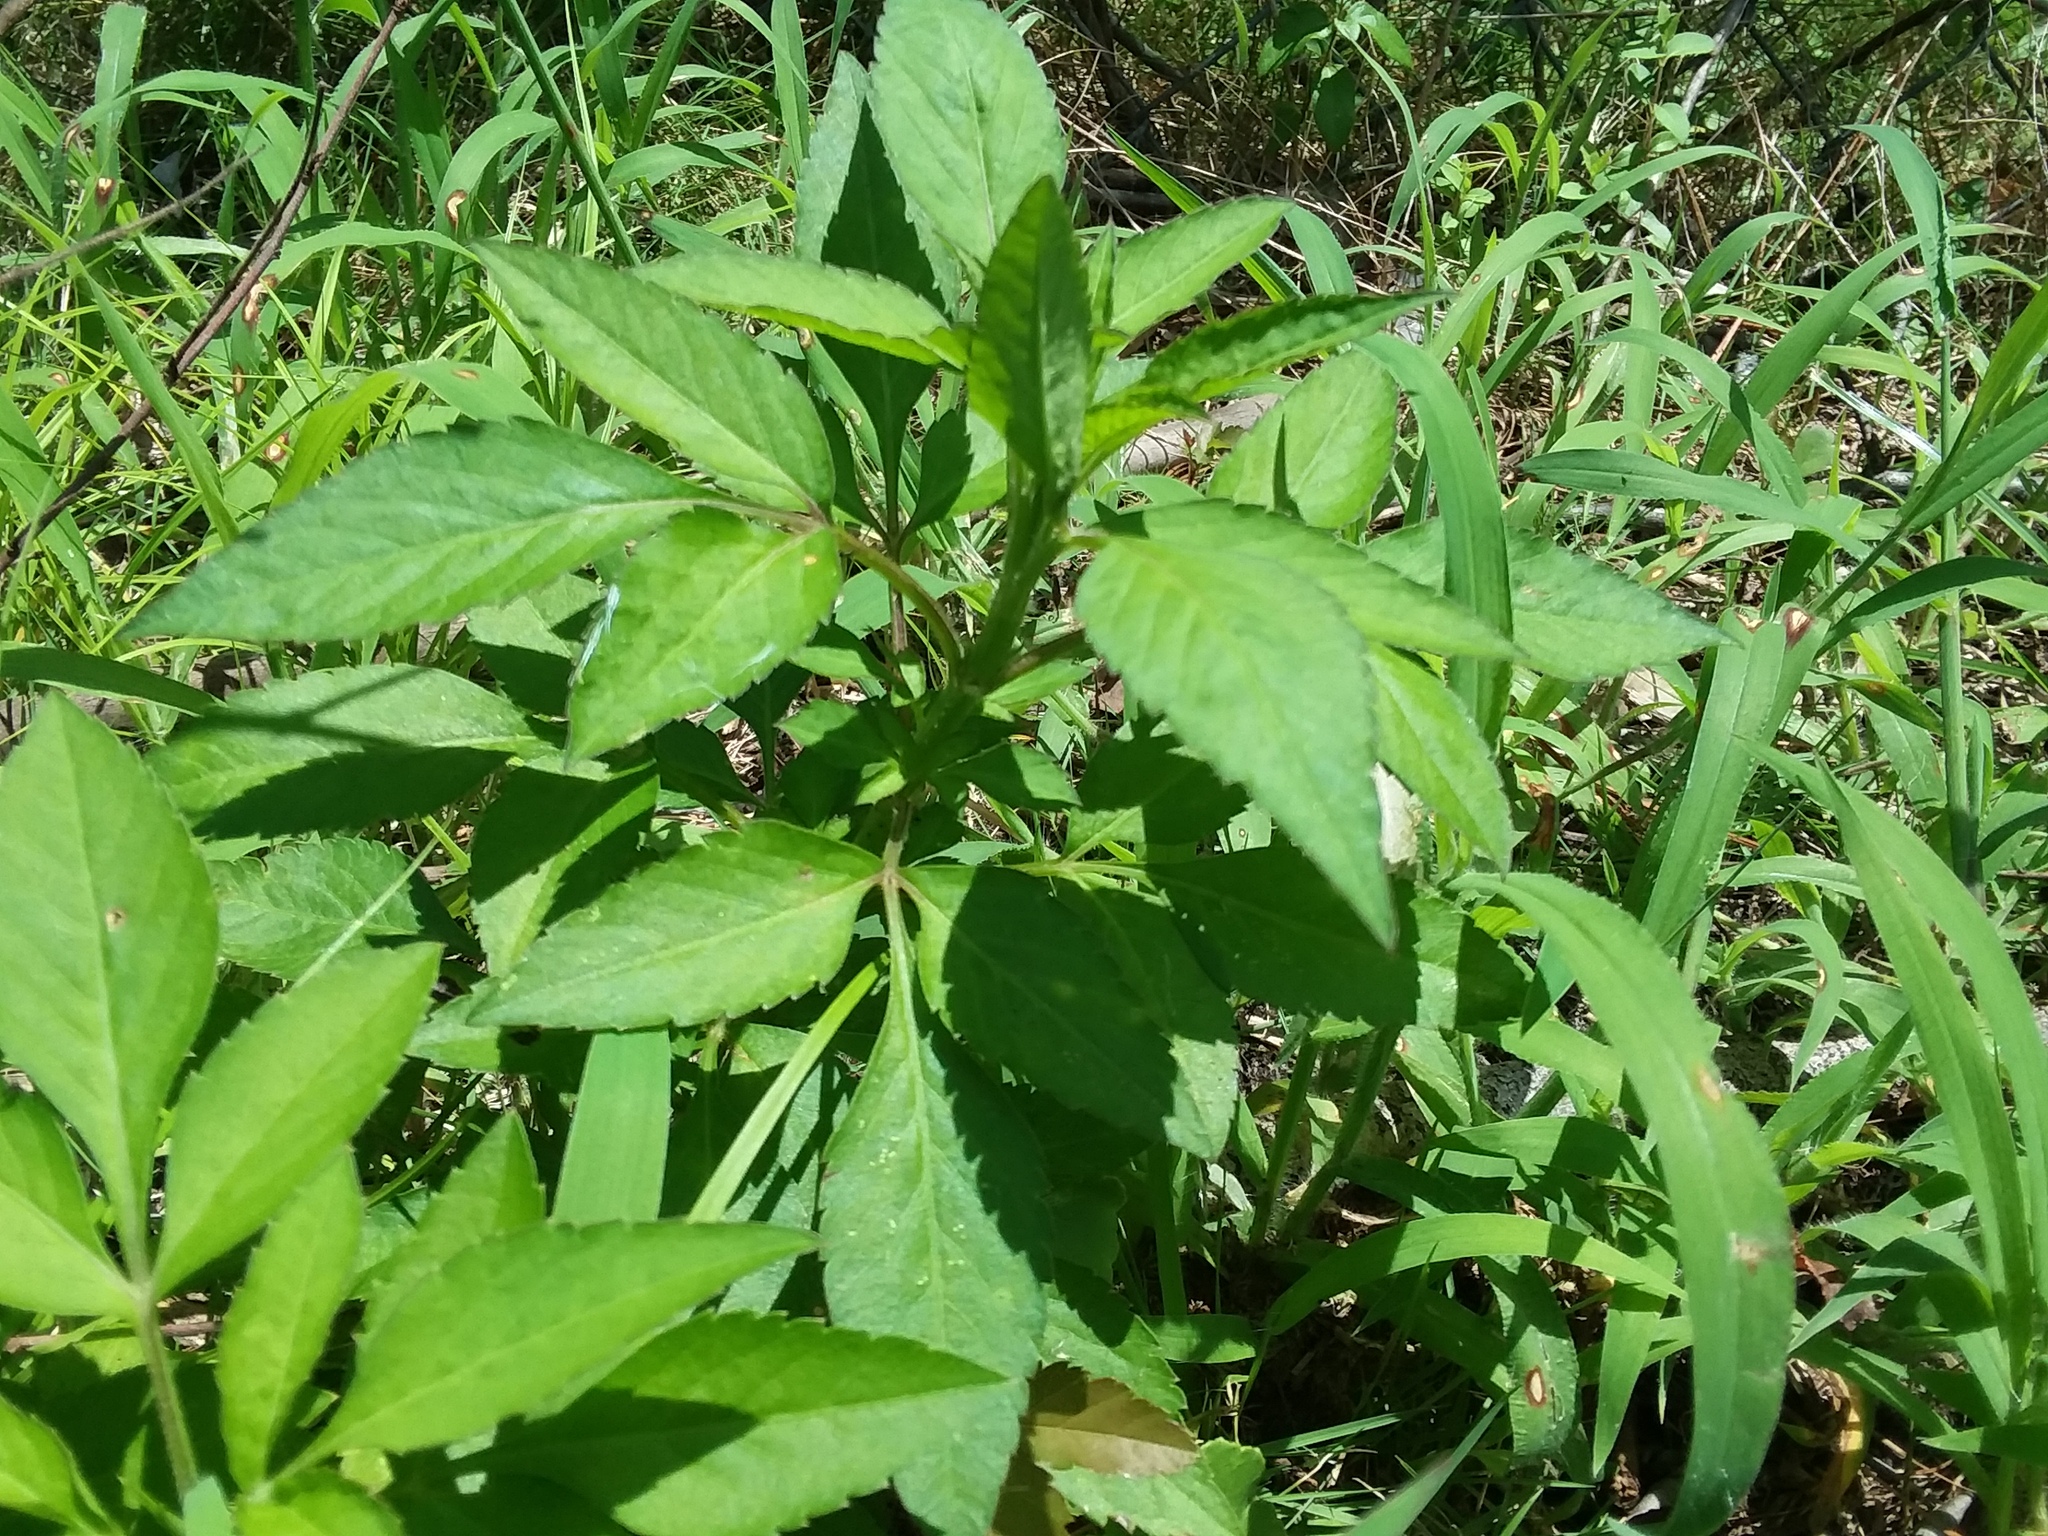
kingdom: Plantae
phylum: Tracheophyta
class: Magnoliopsida
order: Asterales
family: Asteraceae
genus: Bidens
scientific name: Bidens alba
